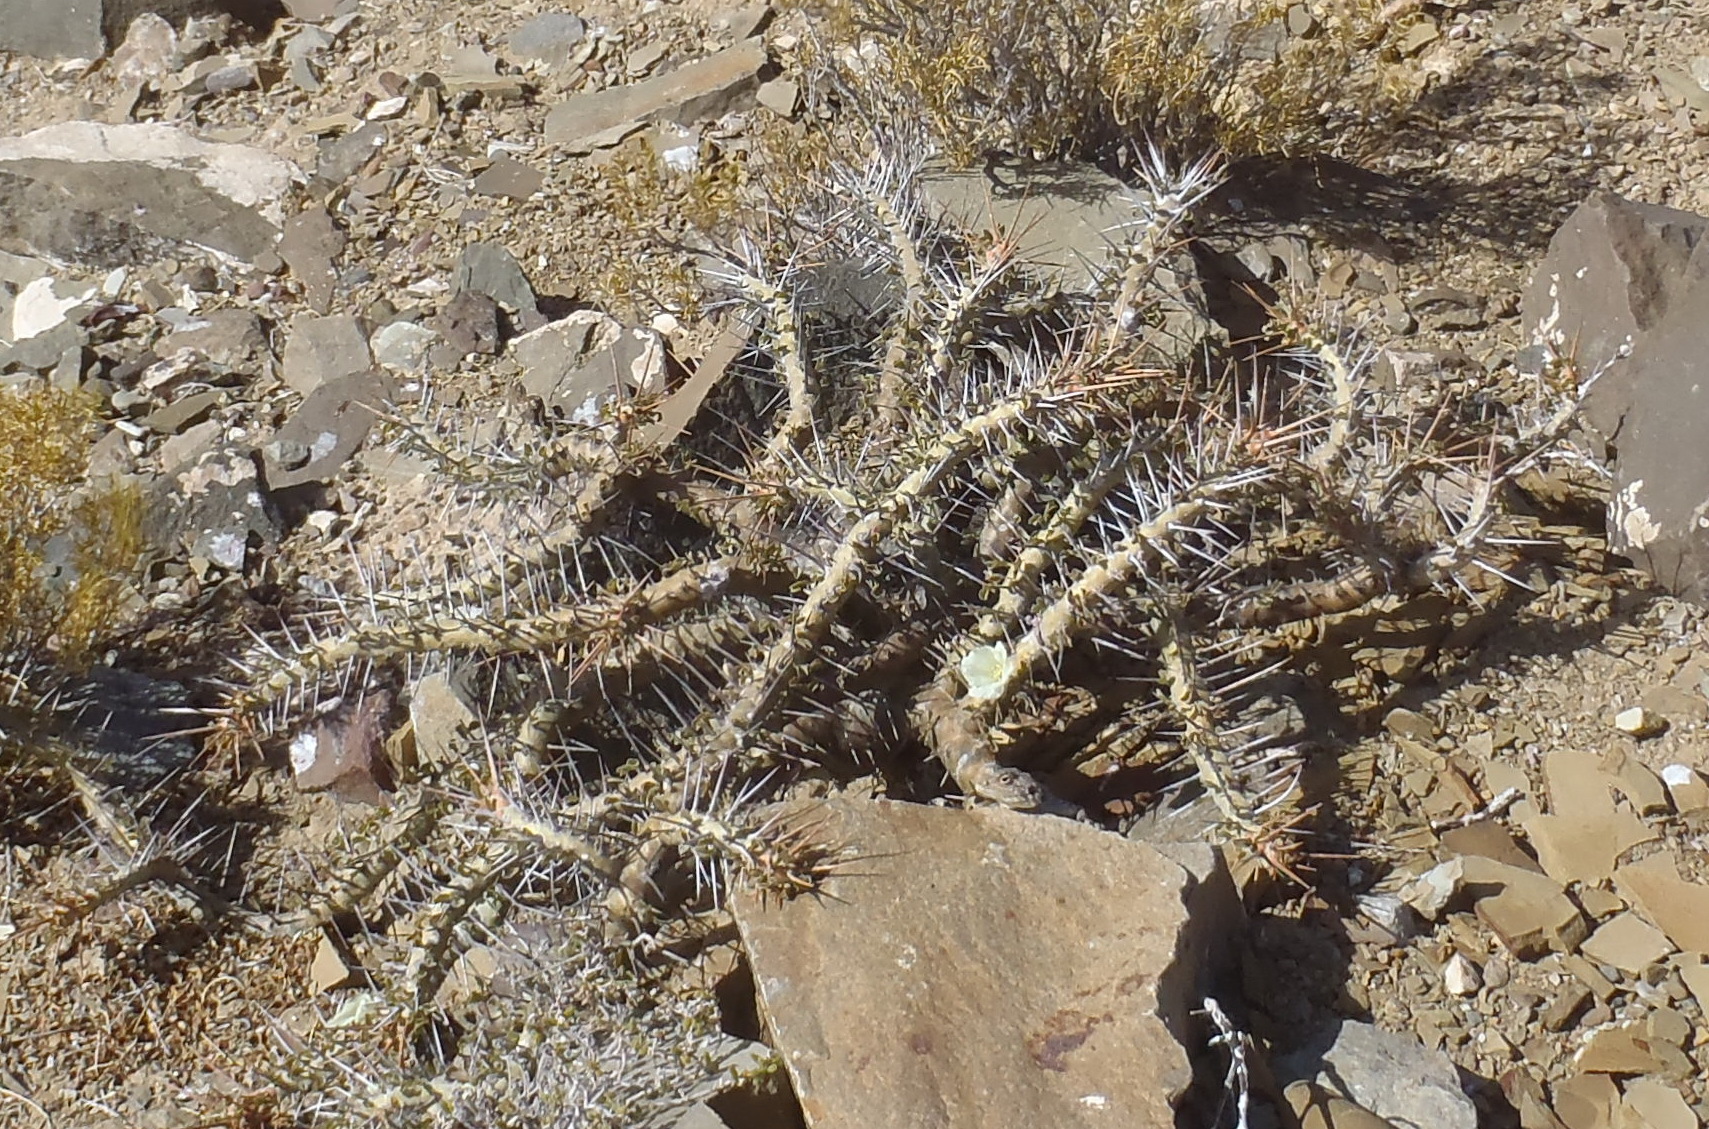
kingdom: Plantae
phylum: Tracheophyta
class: Magnoliopsida
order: Geraniales
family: Geraniaceae
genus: Monsonia
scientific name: Monsonia crassicaulis
